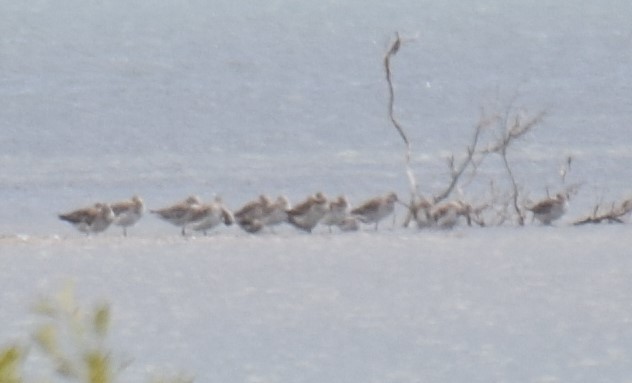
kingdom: Animalia
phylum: Chordata
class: Aves
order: Charadriiformes
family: Scolopacidae
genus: Limosa
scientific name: Limosa lapponica
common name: Bar-tailed godwit
